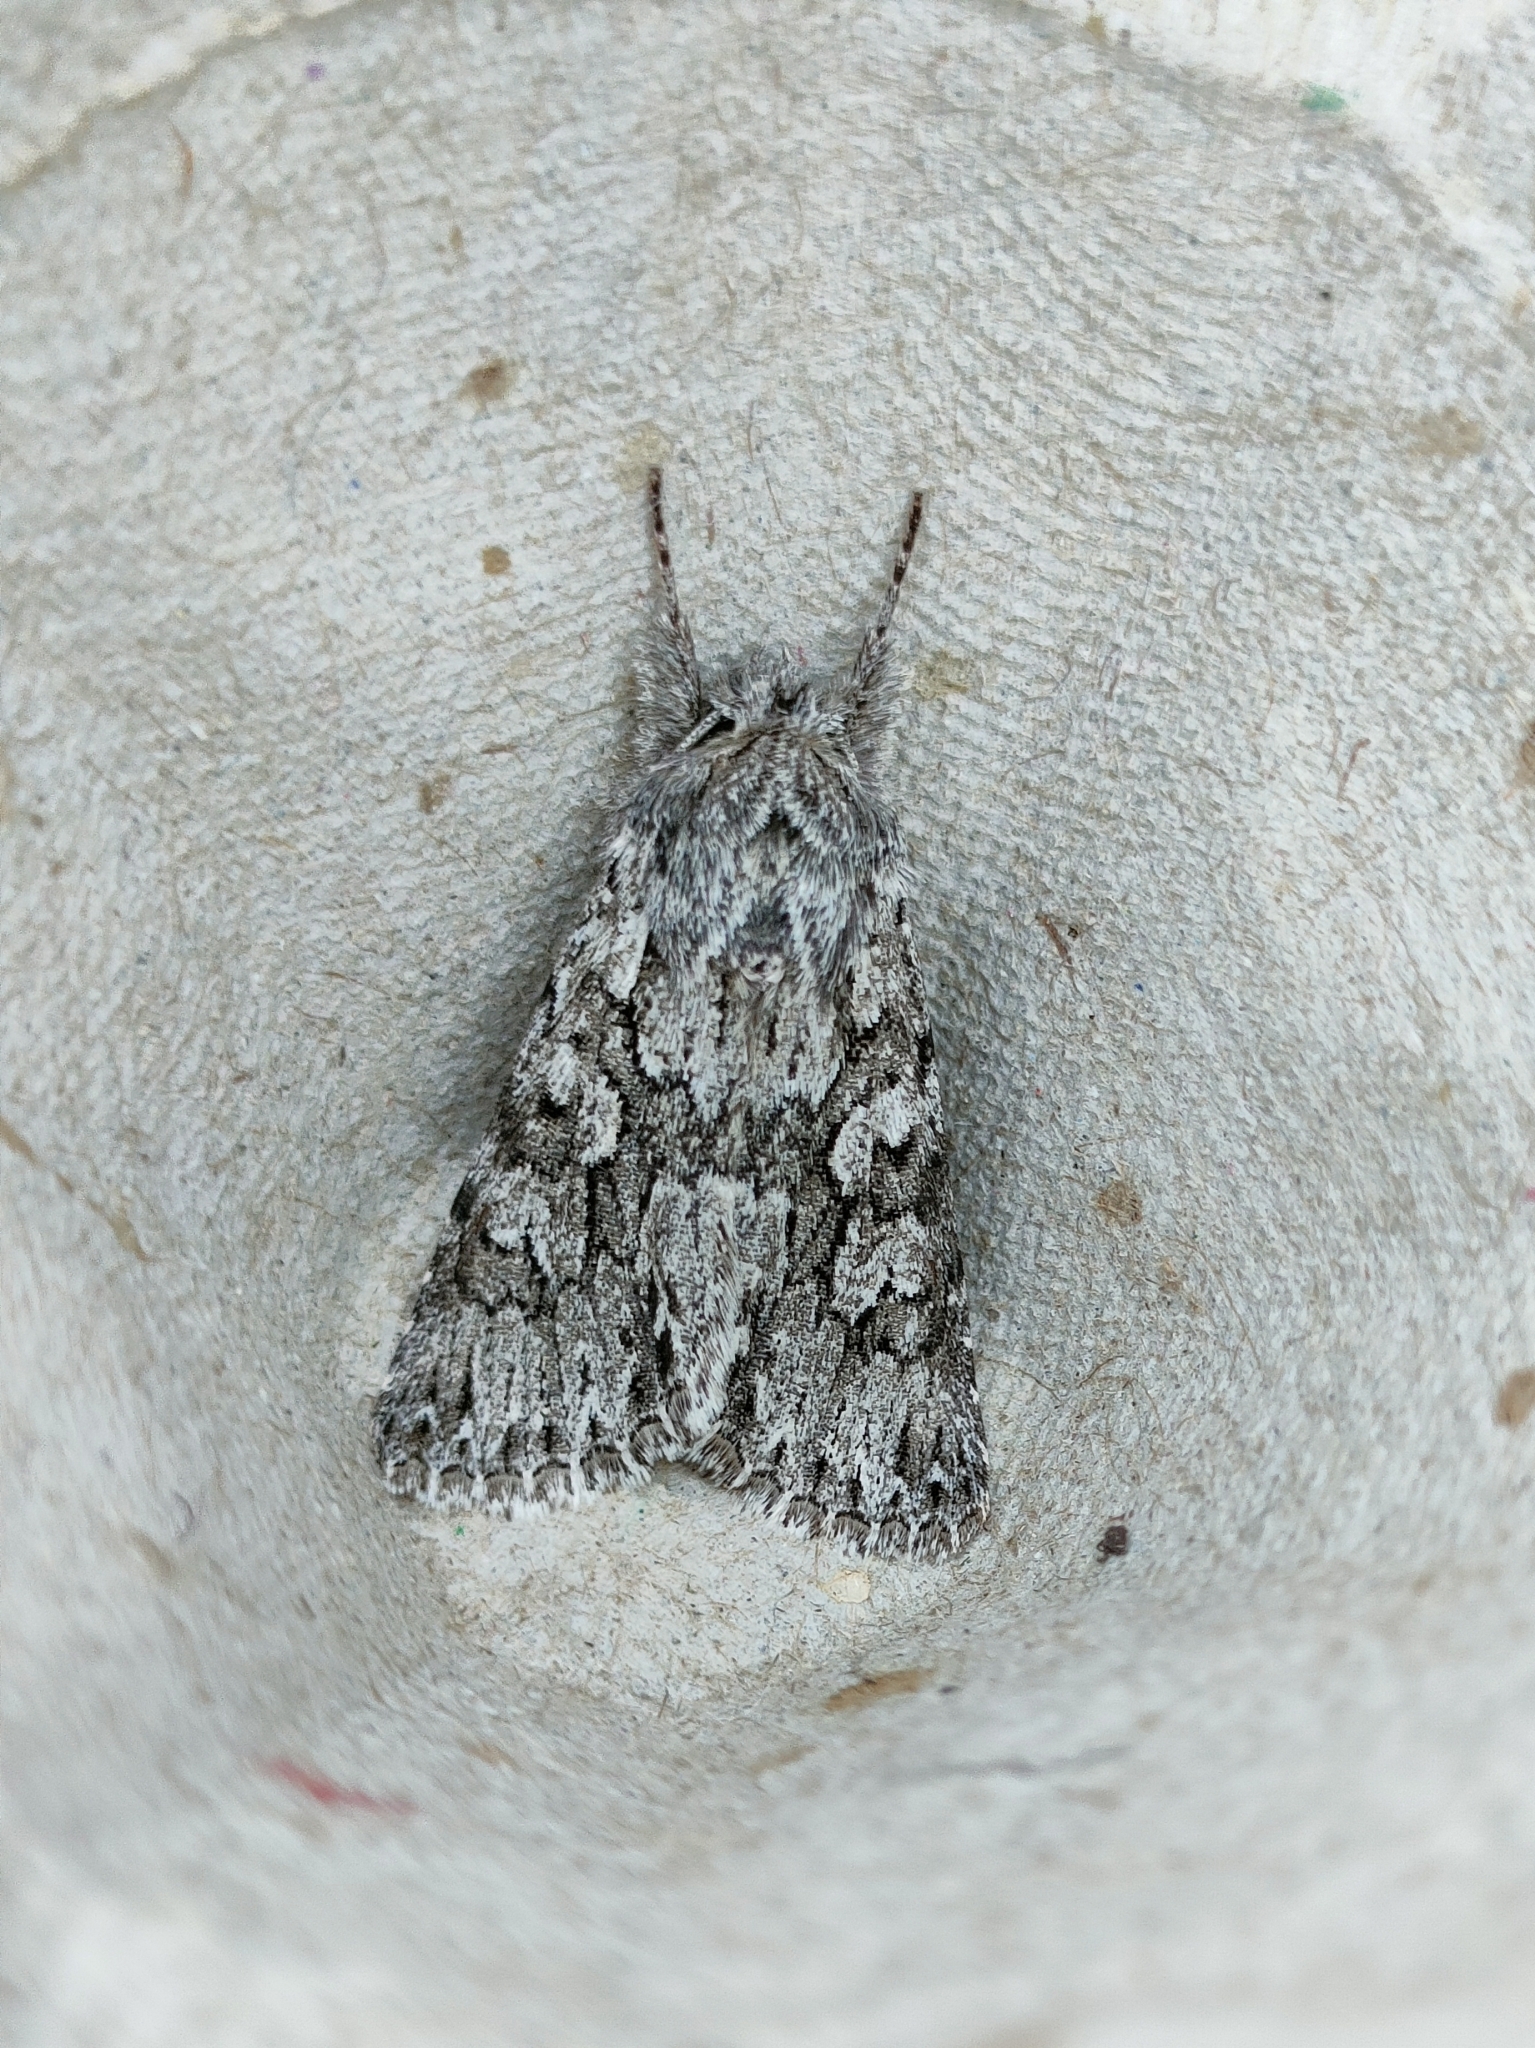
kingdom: Animalia
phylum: Arthropoda
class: Insecta
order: Lepidoptera
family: Noctuidae
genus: Xylocampa
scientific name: Xylocampa areola
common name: Early grey
